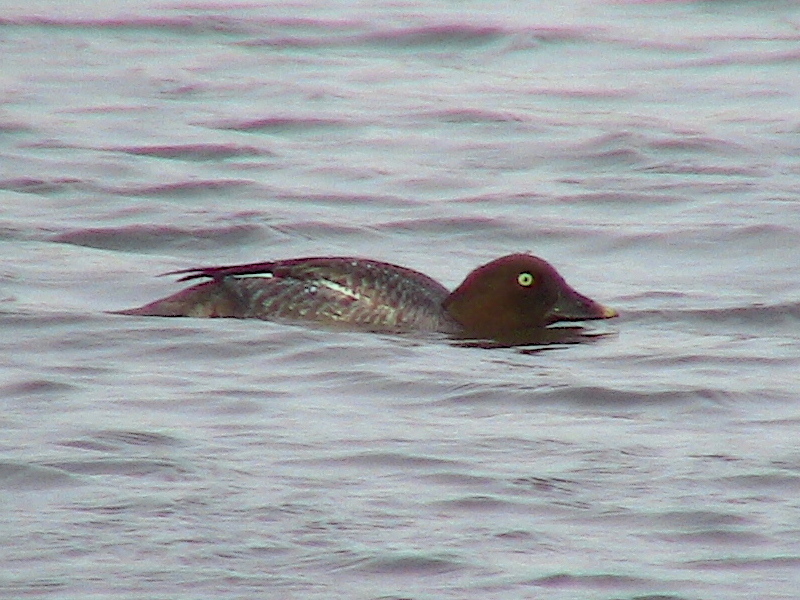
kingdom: Animalia
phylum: Chordata
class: Aves
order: Anseriformes
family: Anatidae
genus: Bucephala
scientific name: Bucephala clangula
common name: Common goldeneye
